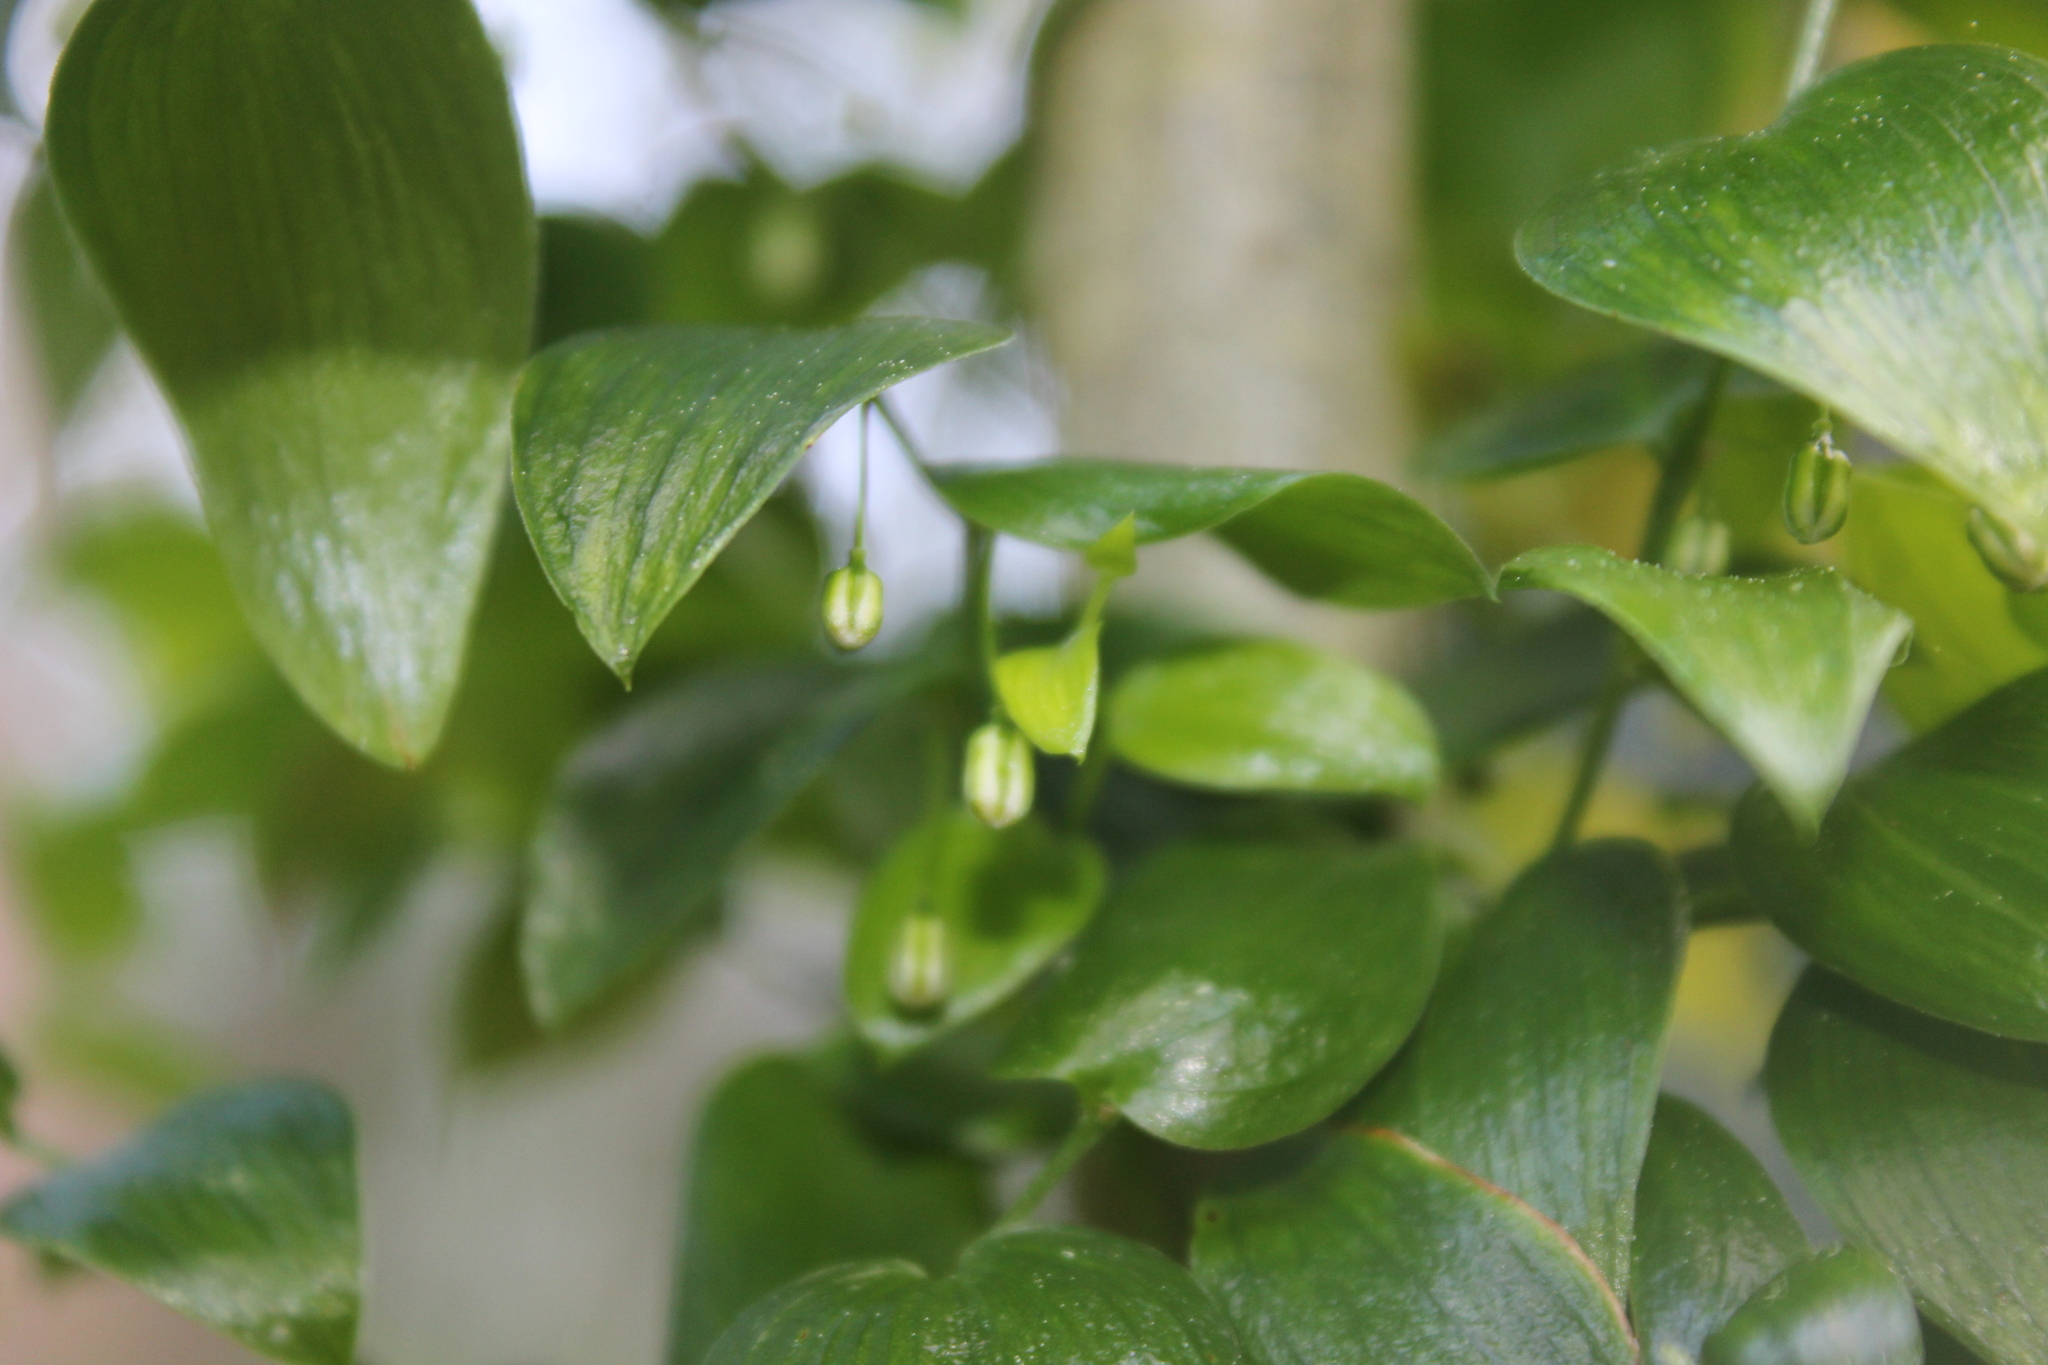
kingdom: Plantae
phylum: Tracheophyta
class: Liliopsida
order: Asparagales
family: Asparagaceae
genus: Asparagus
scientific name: Asparagus asparagoides
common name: African asparagus fern
